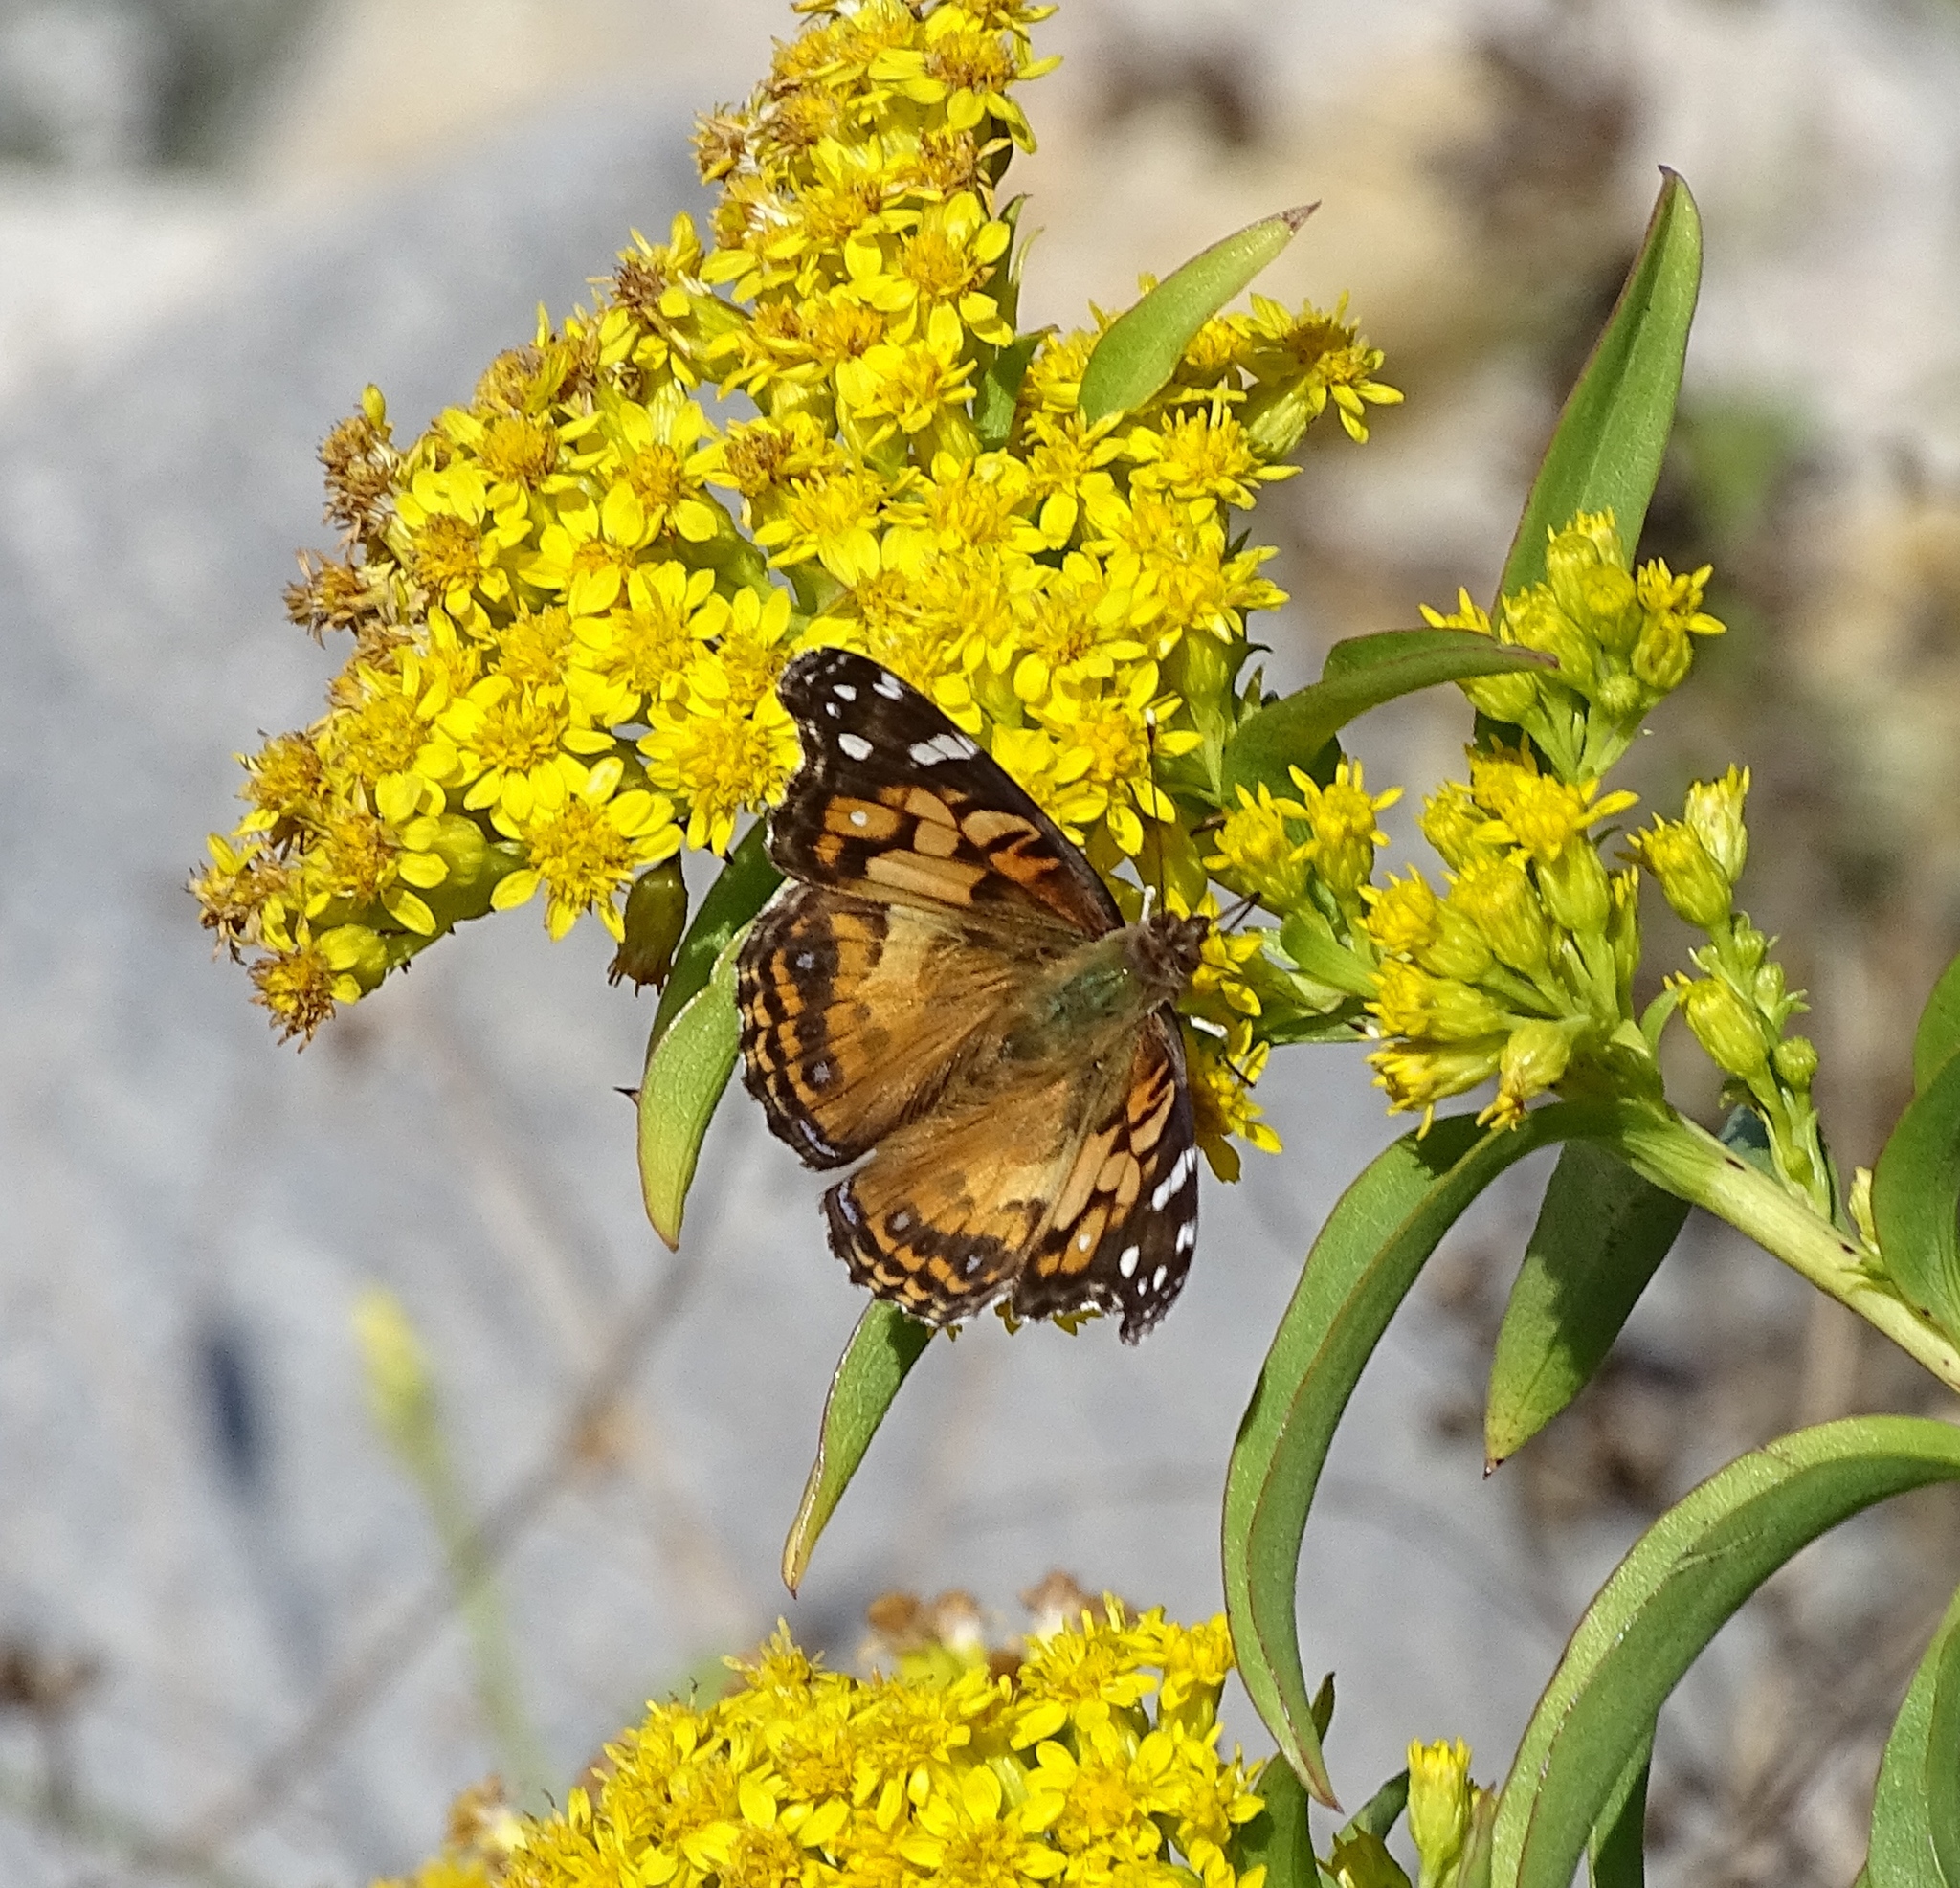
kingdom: Animalia
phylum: Arthropoda
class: Insecta
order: Lepidoptera
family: Nymphalidae
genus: Vanessa
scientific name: Vanessa virginiensis
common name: American lady
